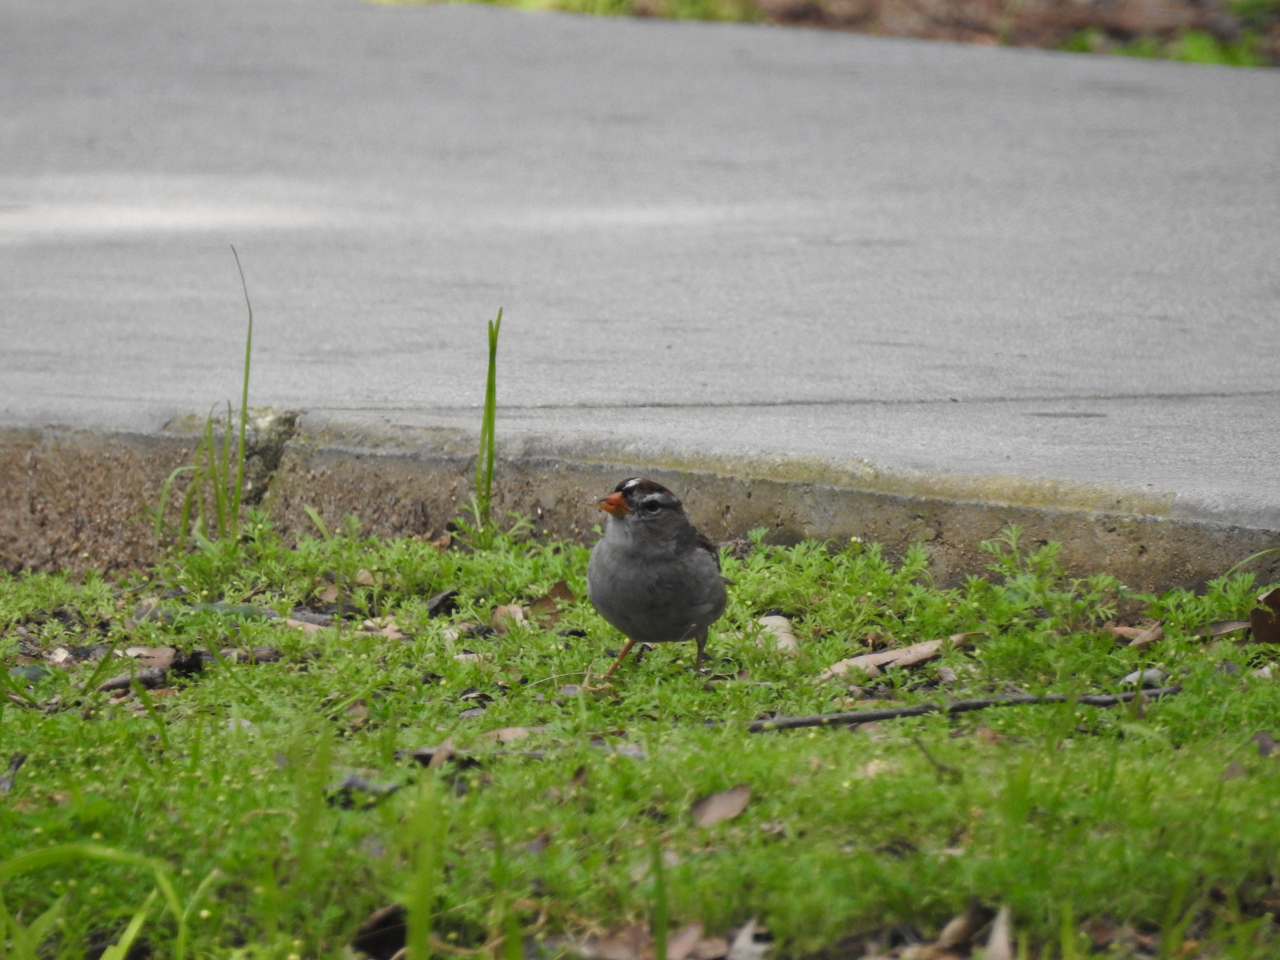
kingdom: Animalia
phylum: Chordata
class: Aves
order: Passeriformes
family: Passerellidae
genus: Zonotrichia
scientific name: Zonotrichia leucophrys
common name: White-crowned sparrow
